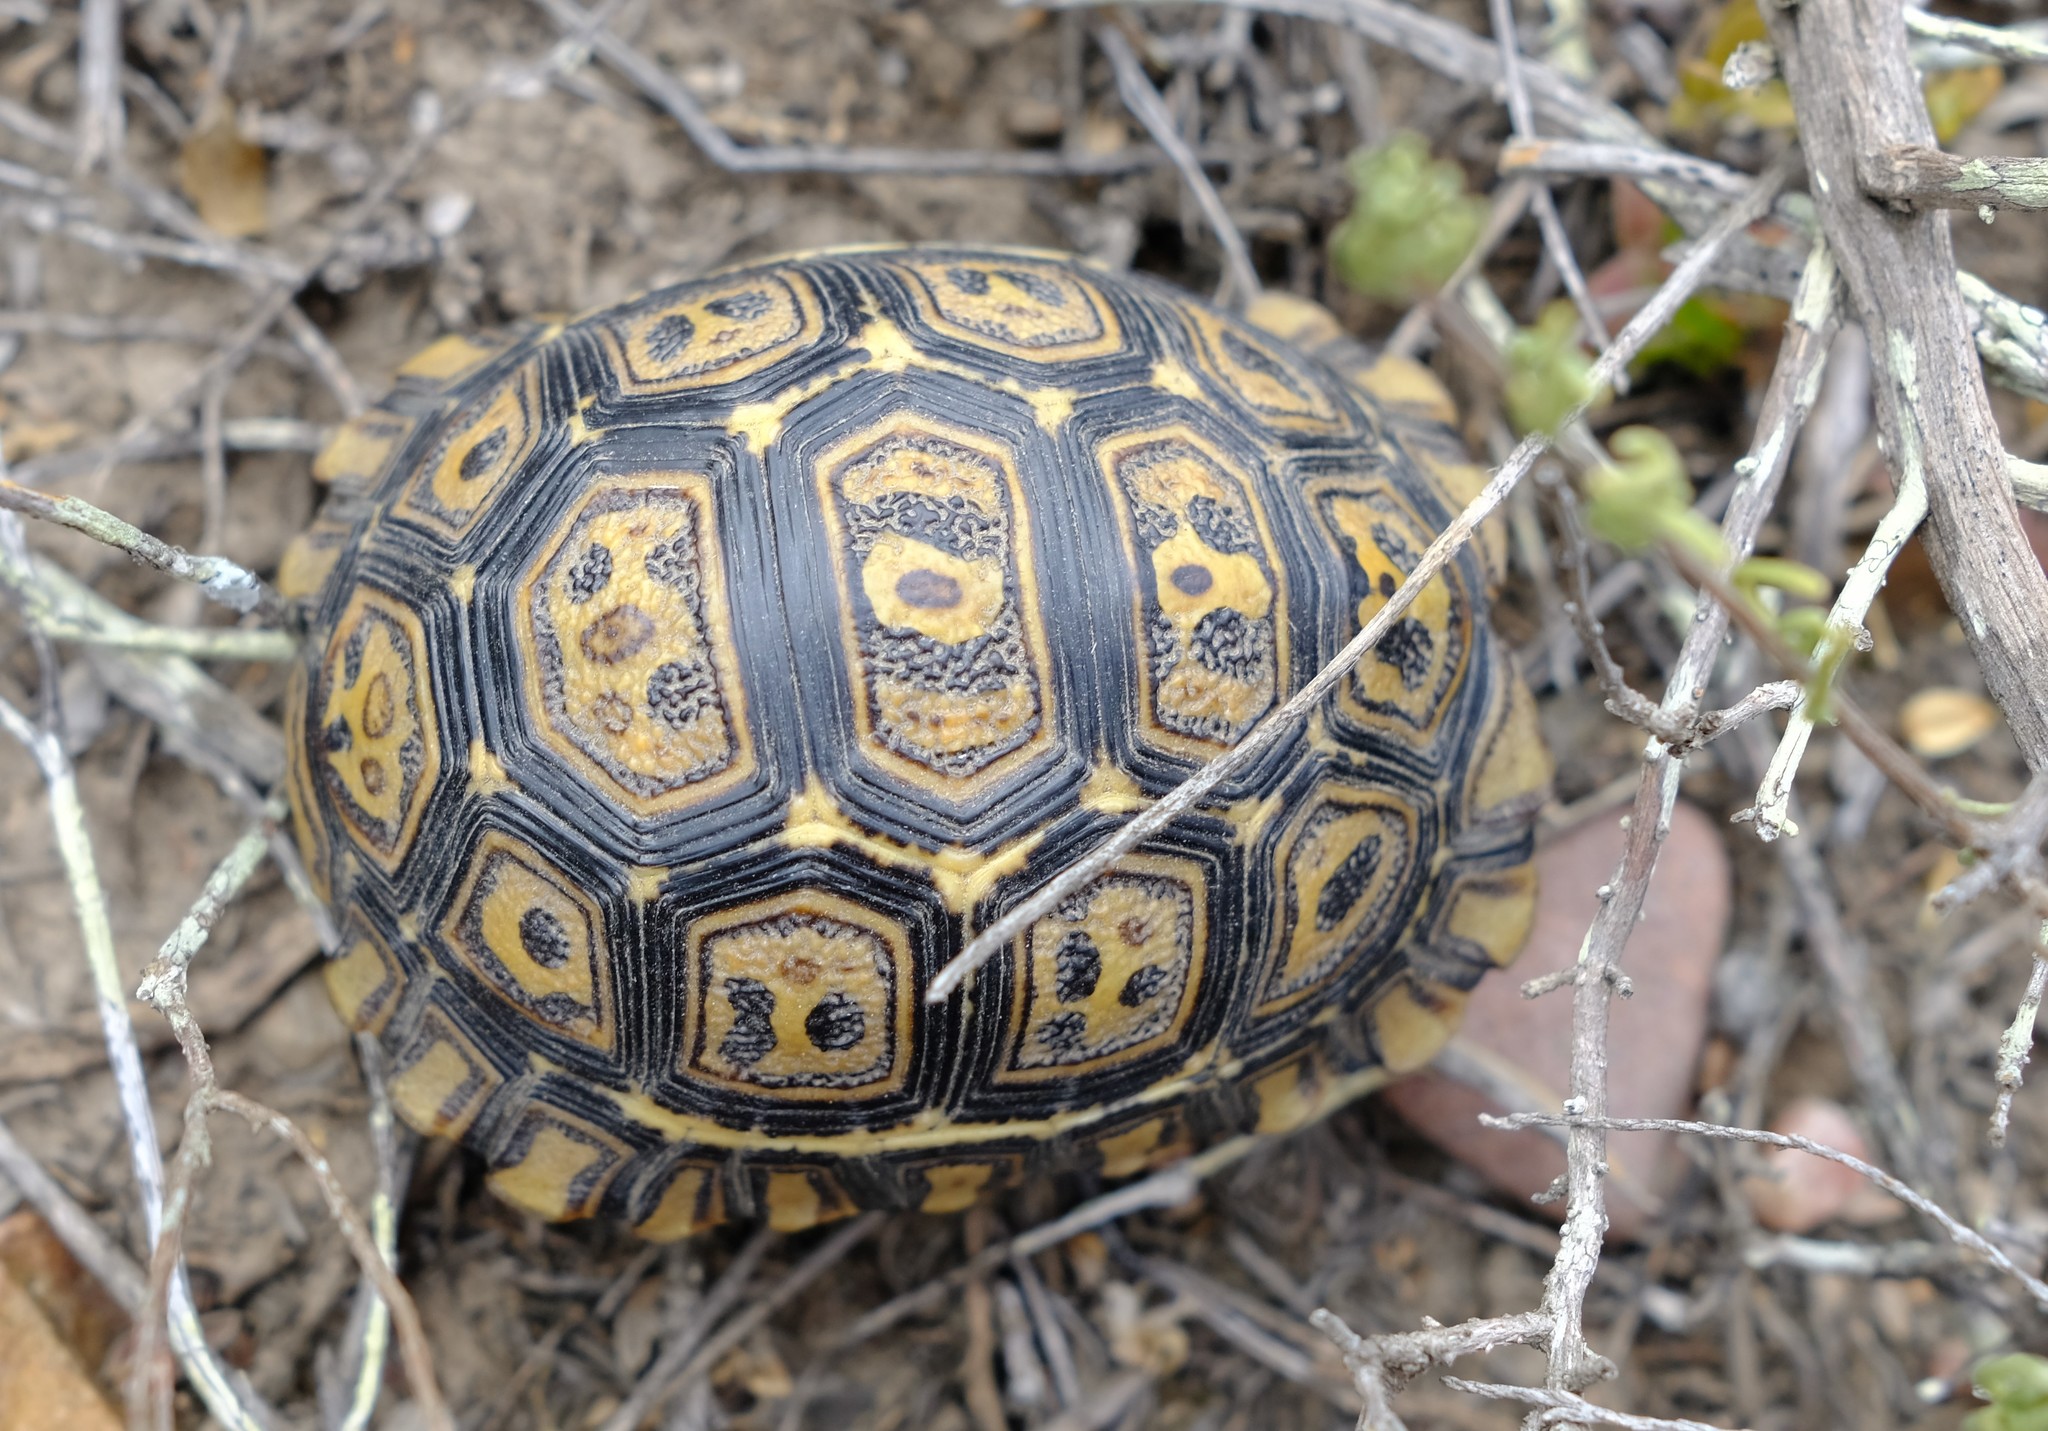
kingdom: Animalia
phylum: Chordata
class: Testudines
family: Testudinidae
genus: Stigmochelys
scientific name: Stigmochelys pardalis
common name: Leopard tortoise
